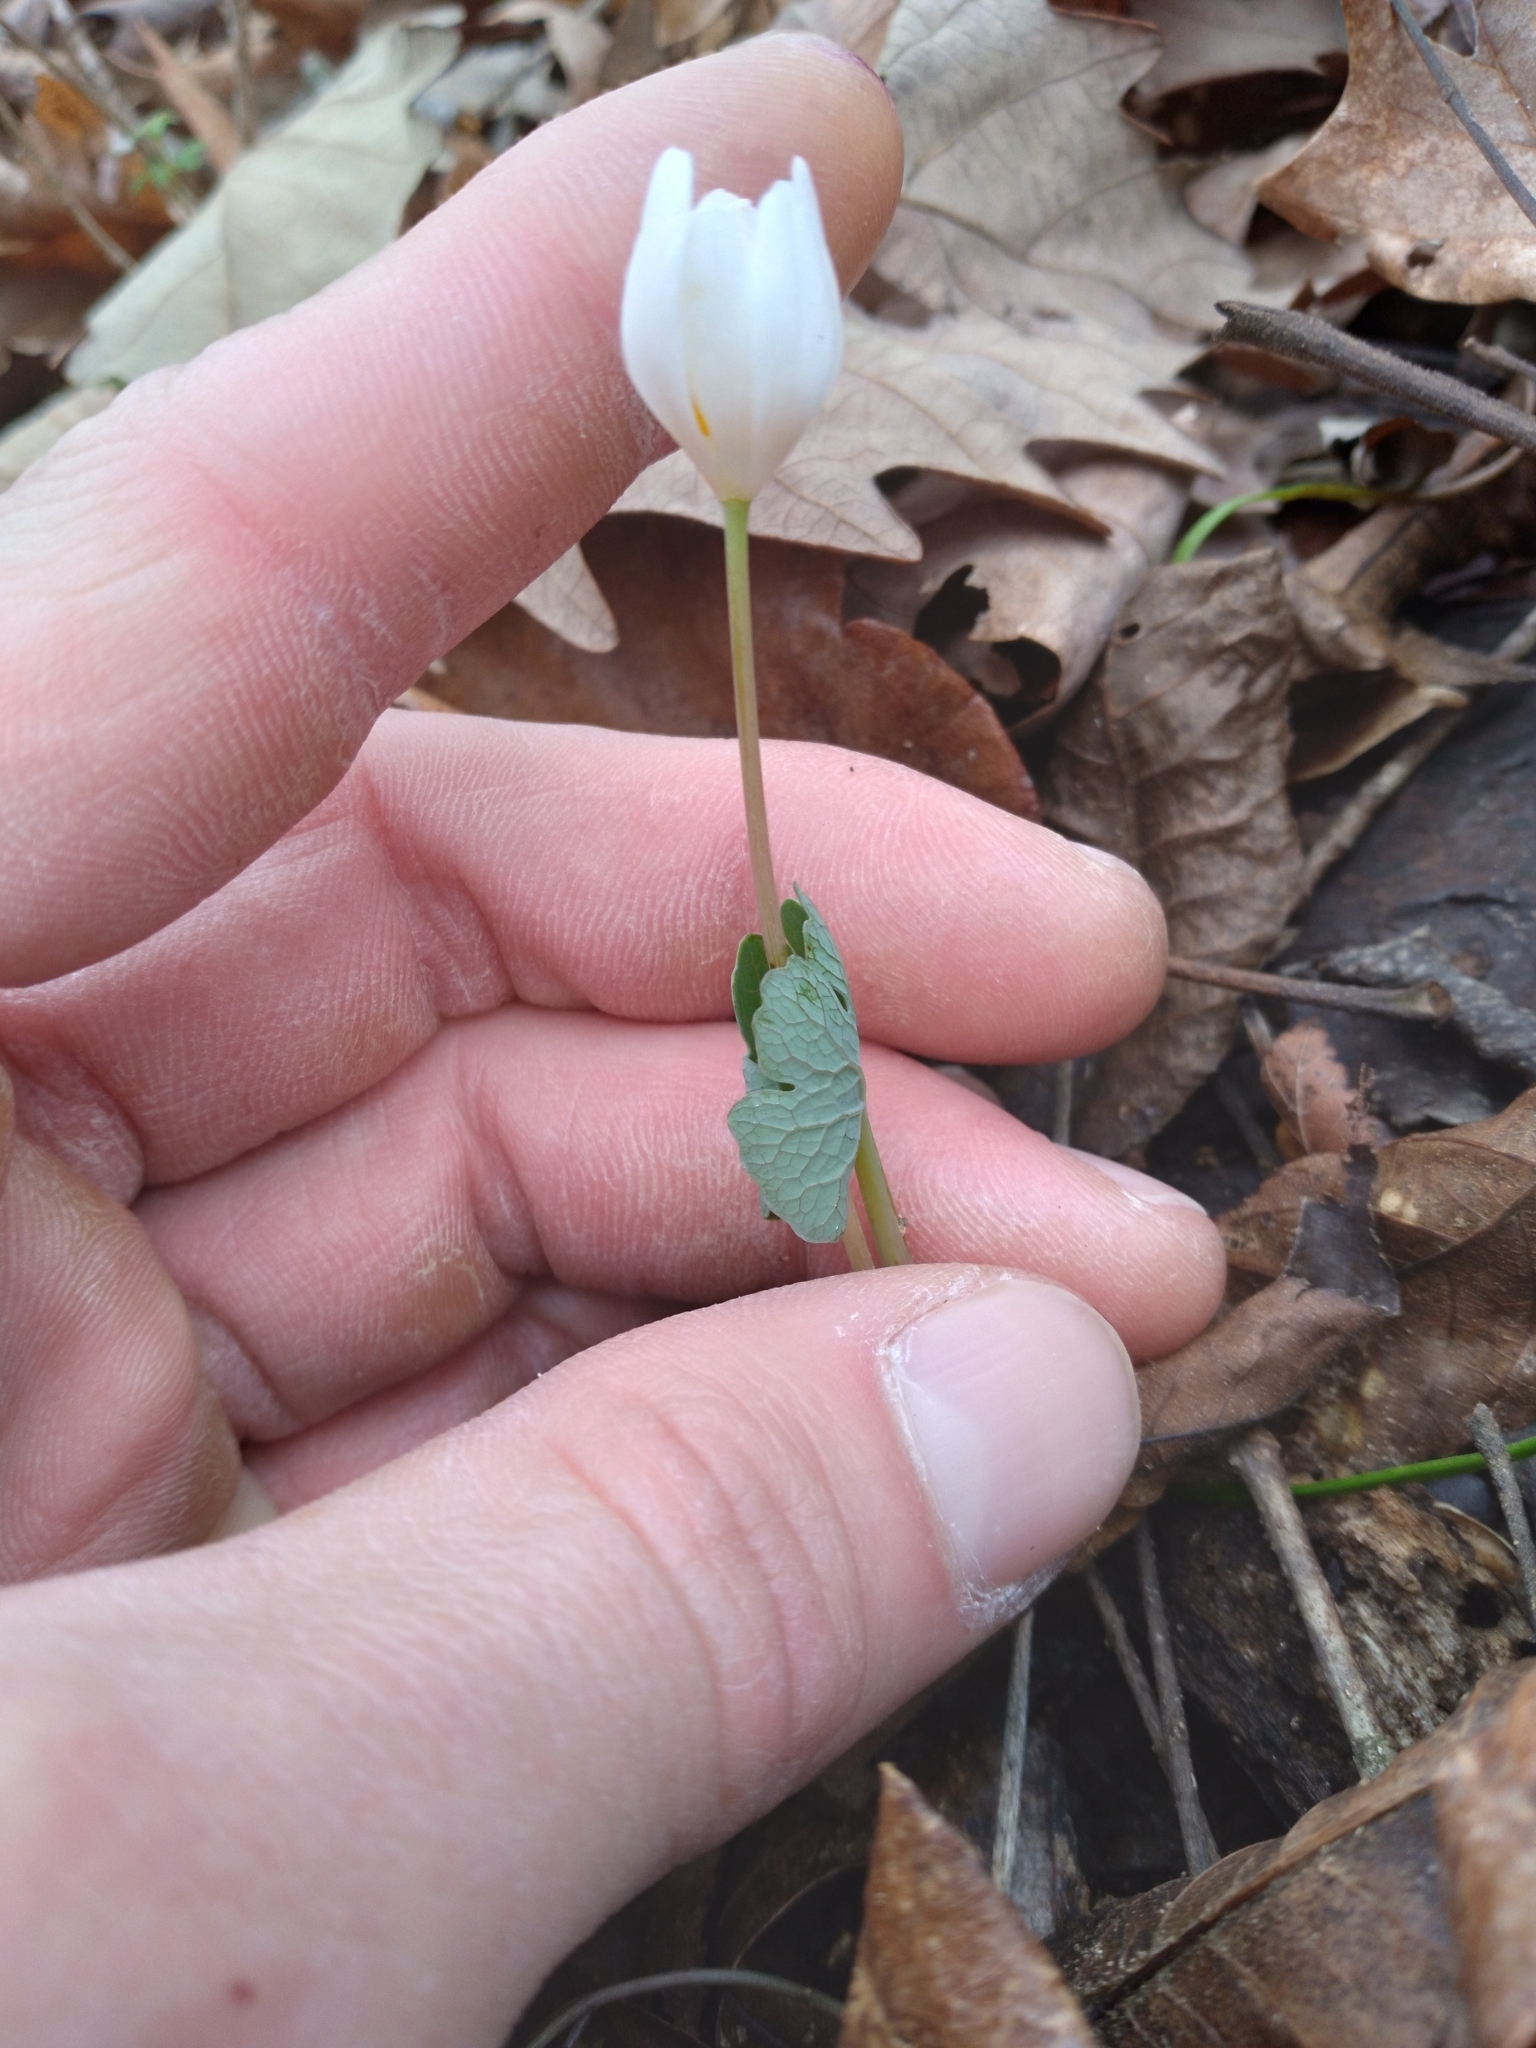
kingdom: Plantae
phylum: Tracheophyta
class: Magnoliopsida
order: Ranunculales
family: Papaveraceae
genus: Sanguinaria
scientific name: Sanguinaria canadensis
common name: Bloodroot
